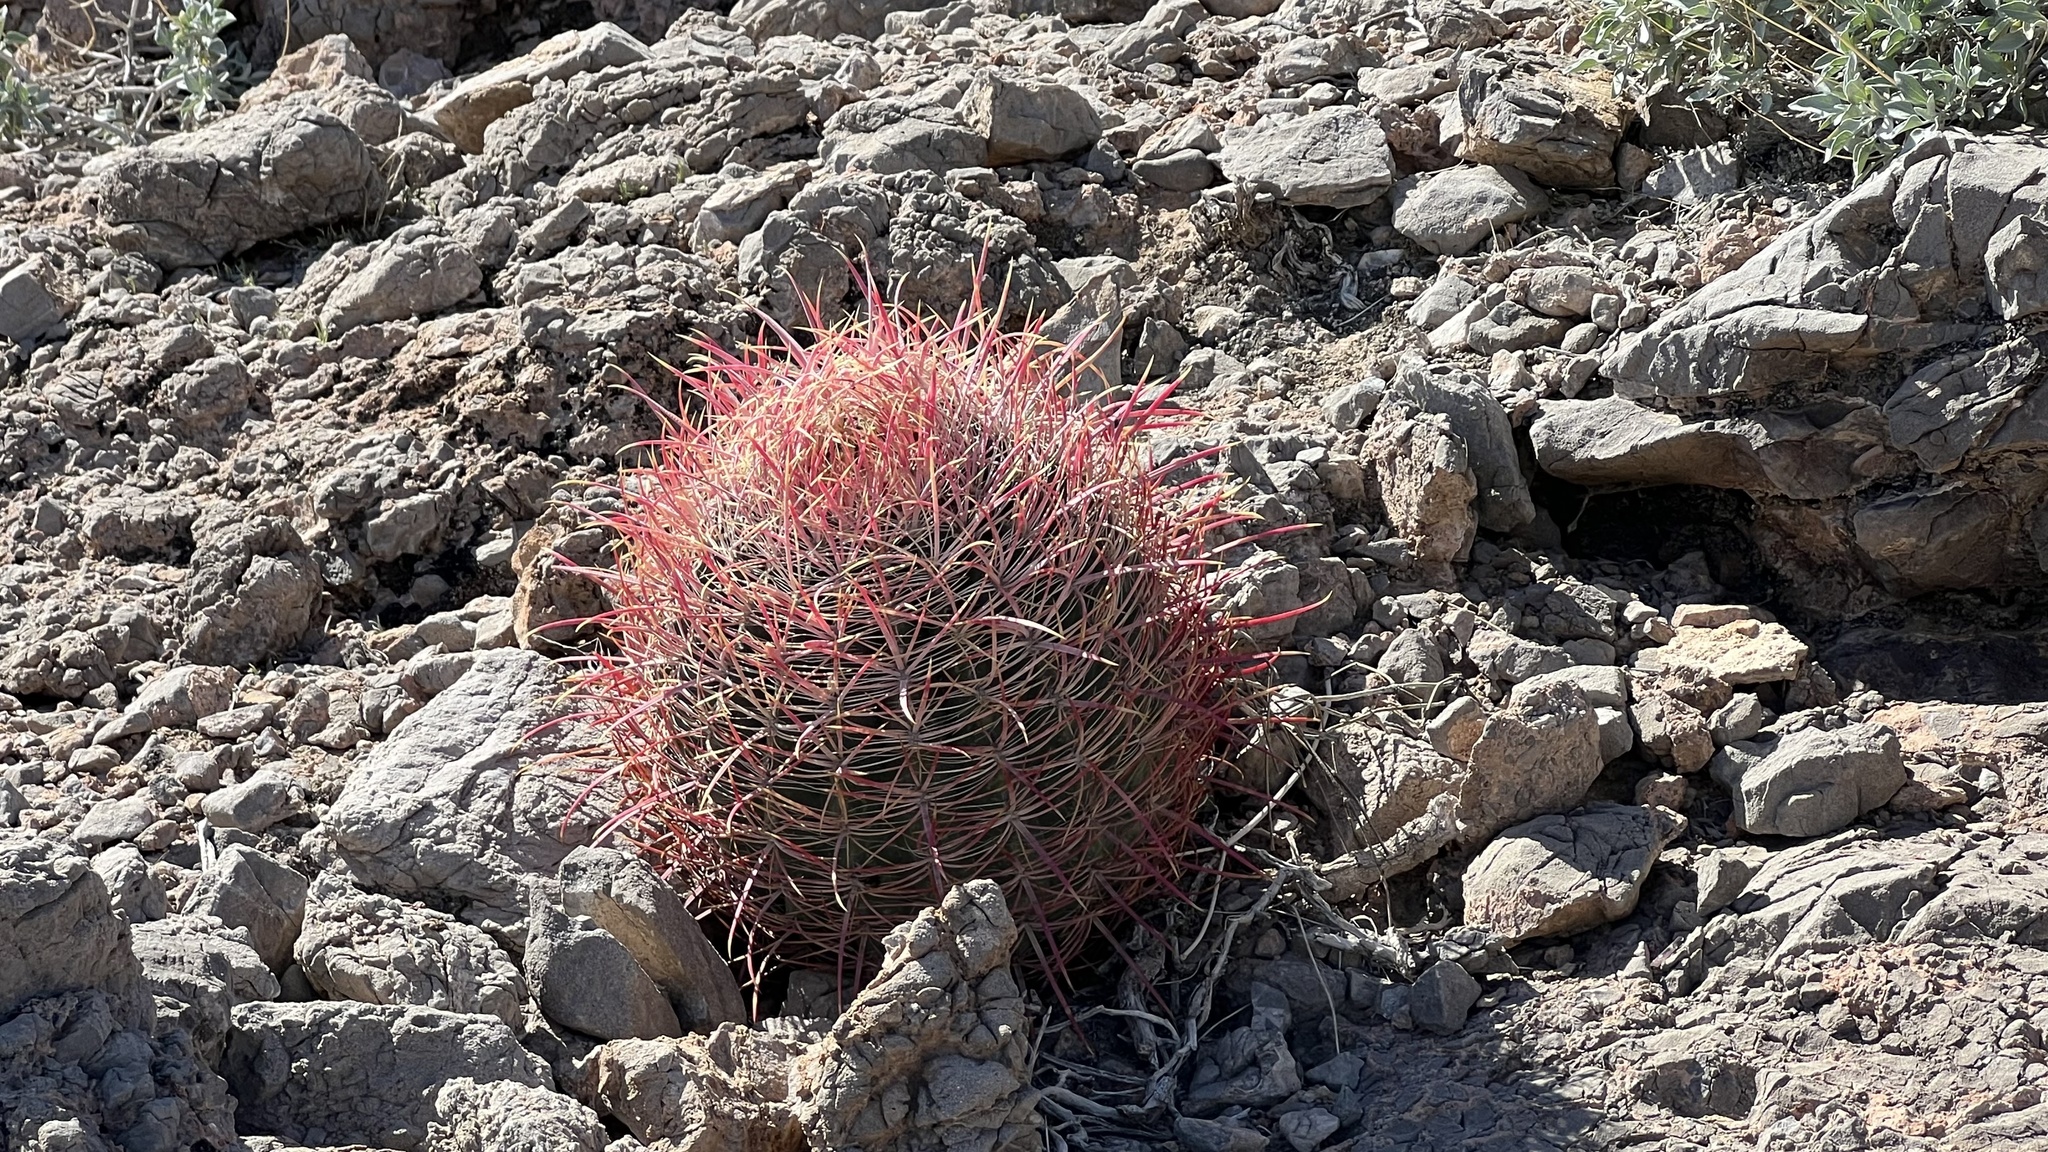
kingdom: Plantae
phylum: Tracheophyta
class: Magnoliopsida
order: Caryophyllales
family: Cactaceae
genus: Ferocactus
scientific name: Ferocactus cylindraceus
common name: California barrel cactus
